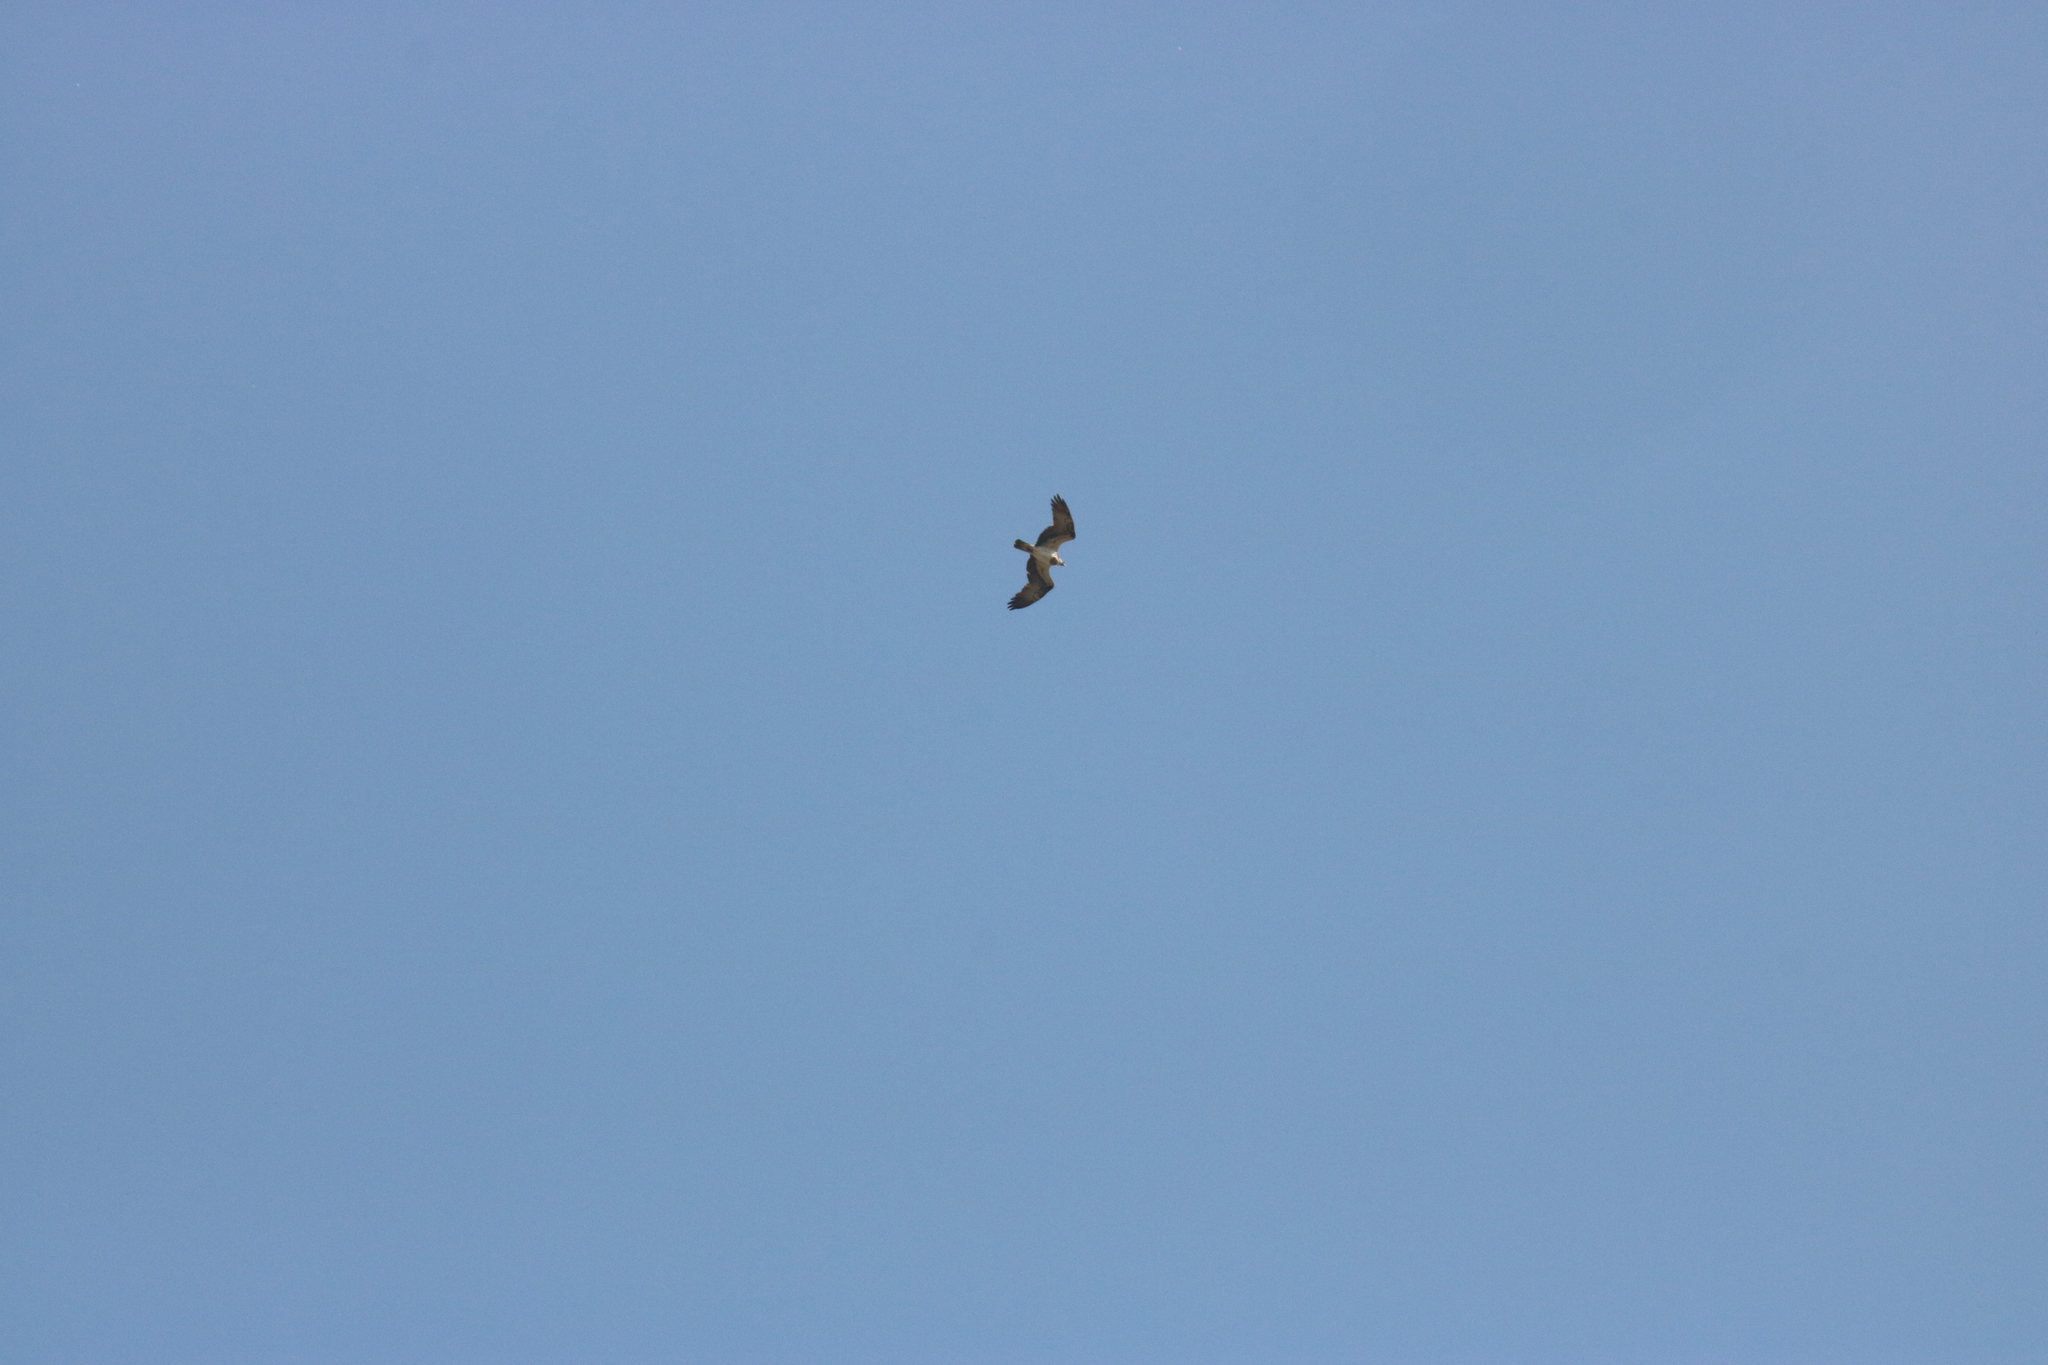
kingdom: Animalia
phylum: Chordata
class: Aves
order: Accipitriformes
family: Pandionidae
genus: Pandion
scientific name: Pandion haliaetus
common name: Osprey
